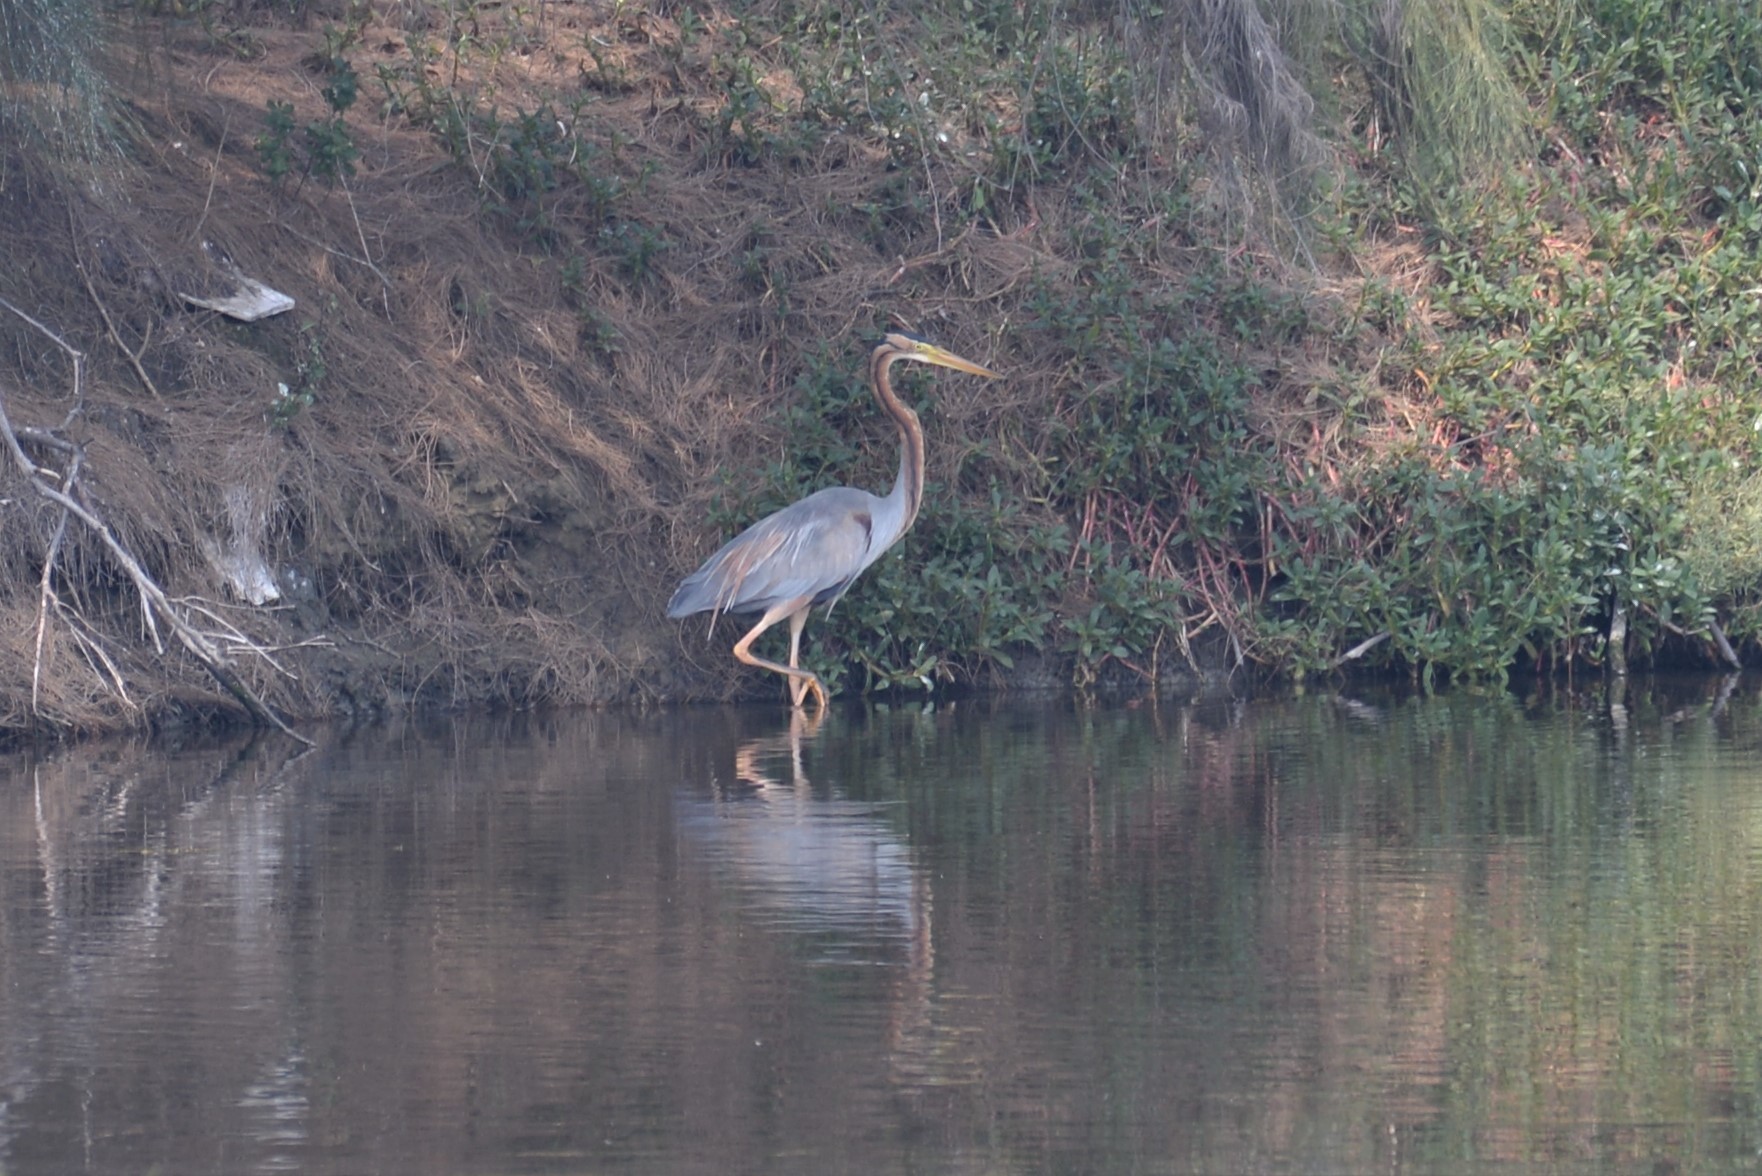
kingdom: Animalia
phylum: Chordata
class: Aves
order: Pelecaniformes
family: Ardeidae
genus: Ardea
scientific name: Ardea purpurea
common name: Purple heron
